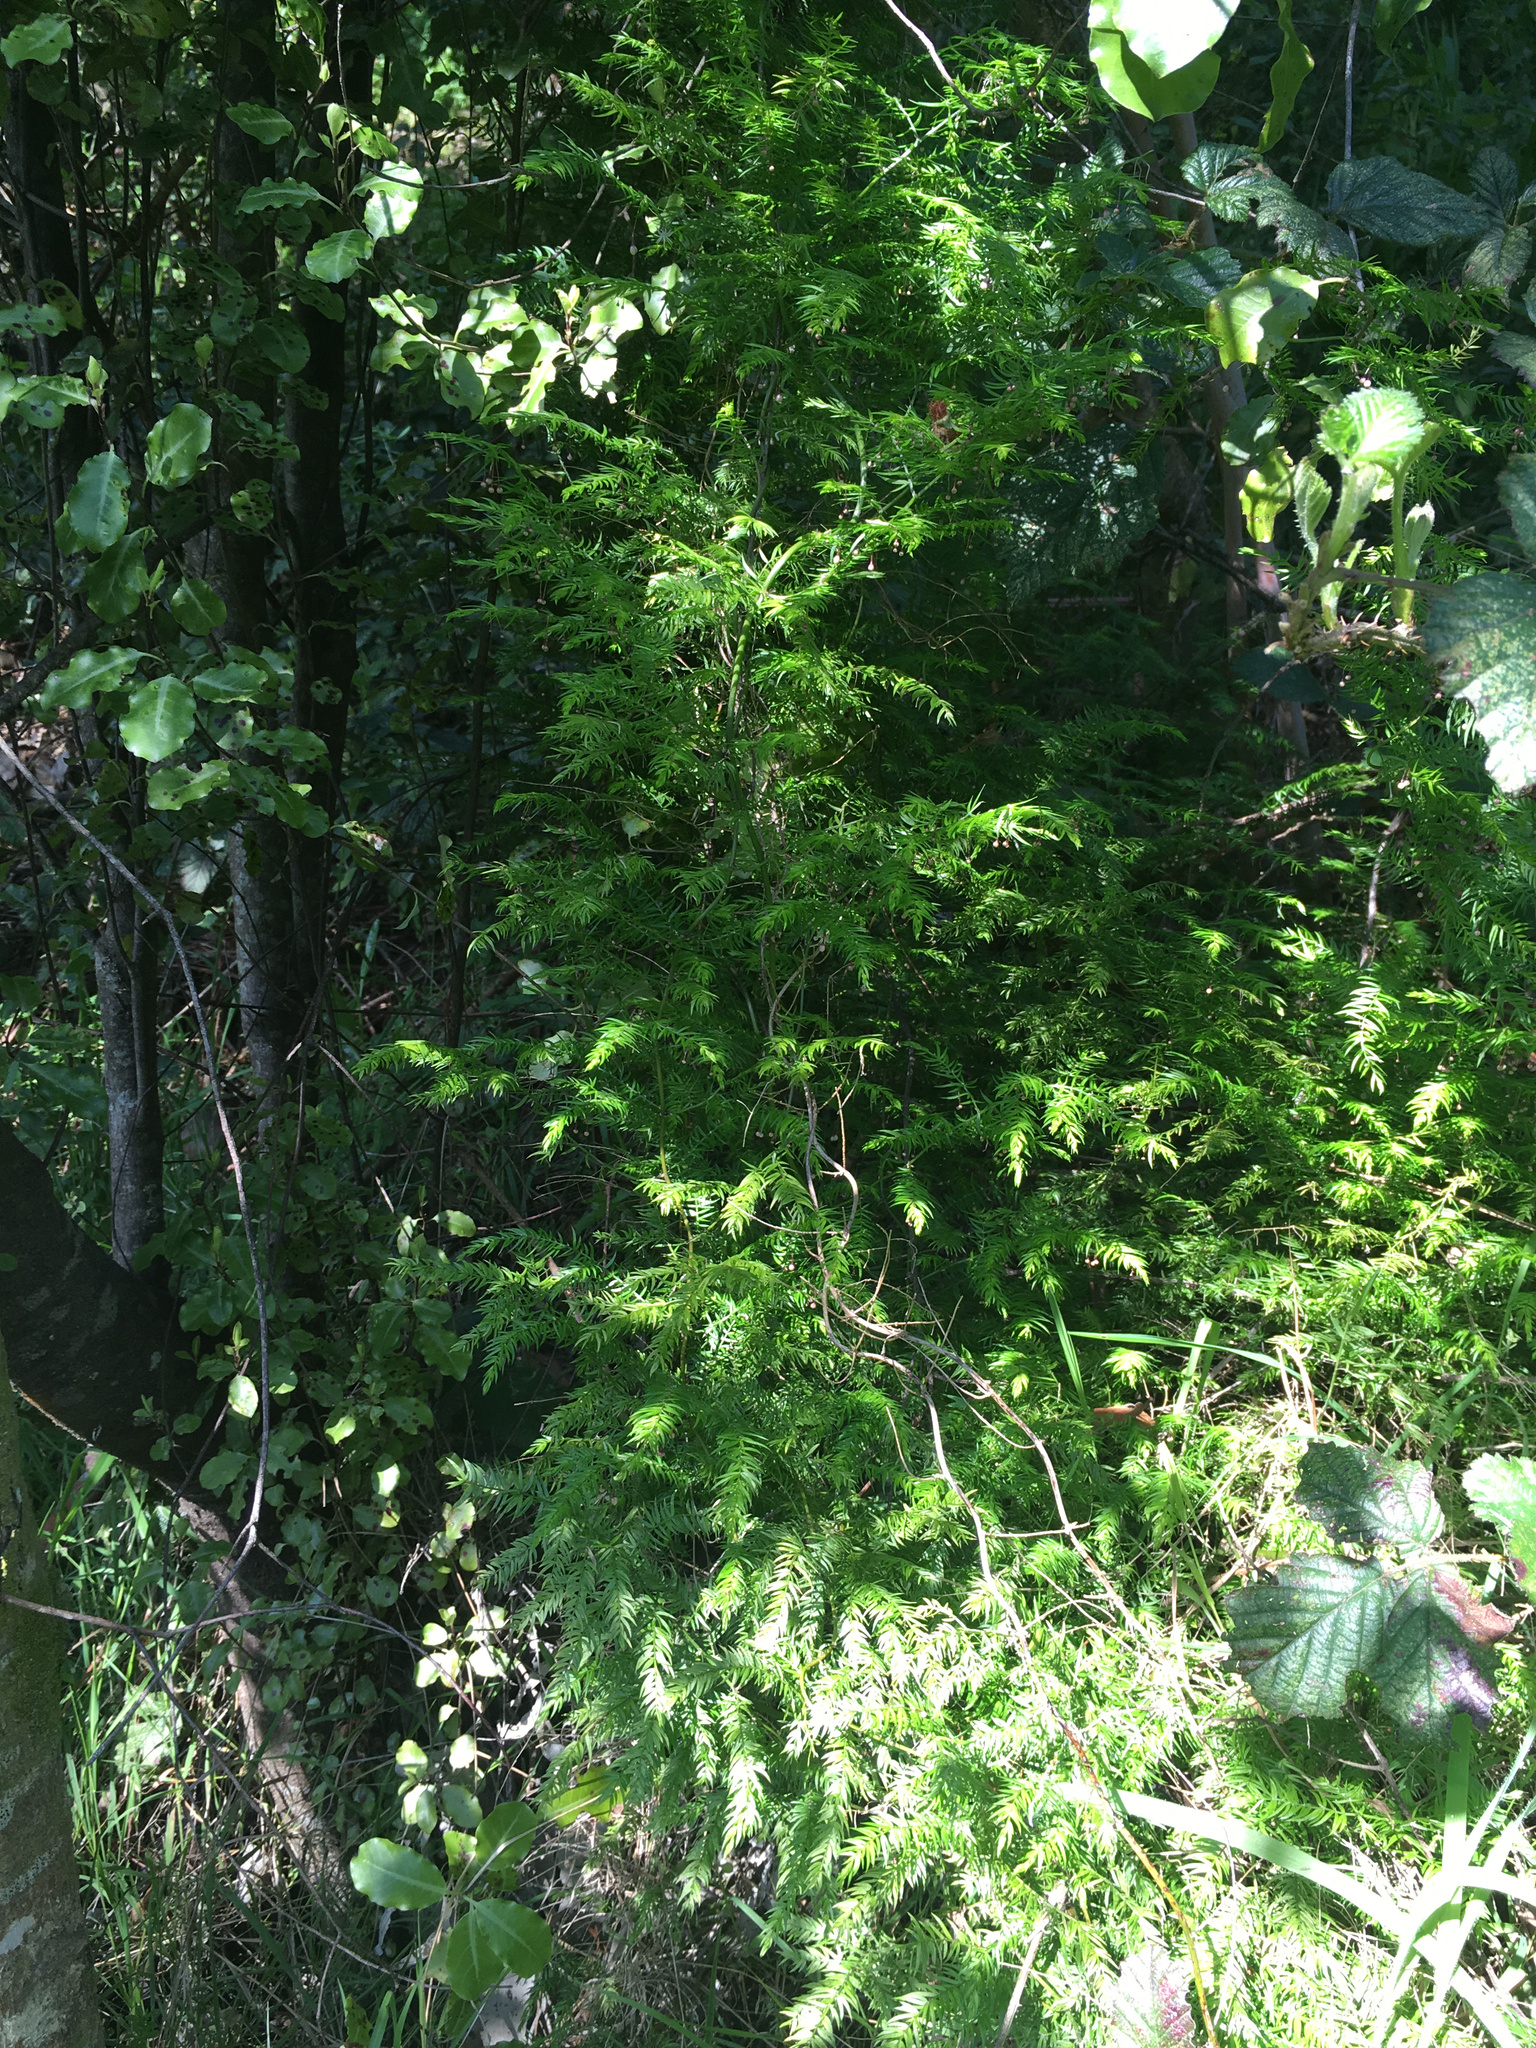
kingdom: Plantae
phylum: Tracheophyta
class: Liliopsida
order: Asparagales
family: Asparagaceae
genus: Asparagus
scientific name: Asparagus scandens
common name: Asparagus-fern
